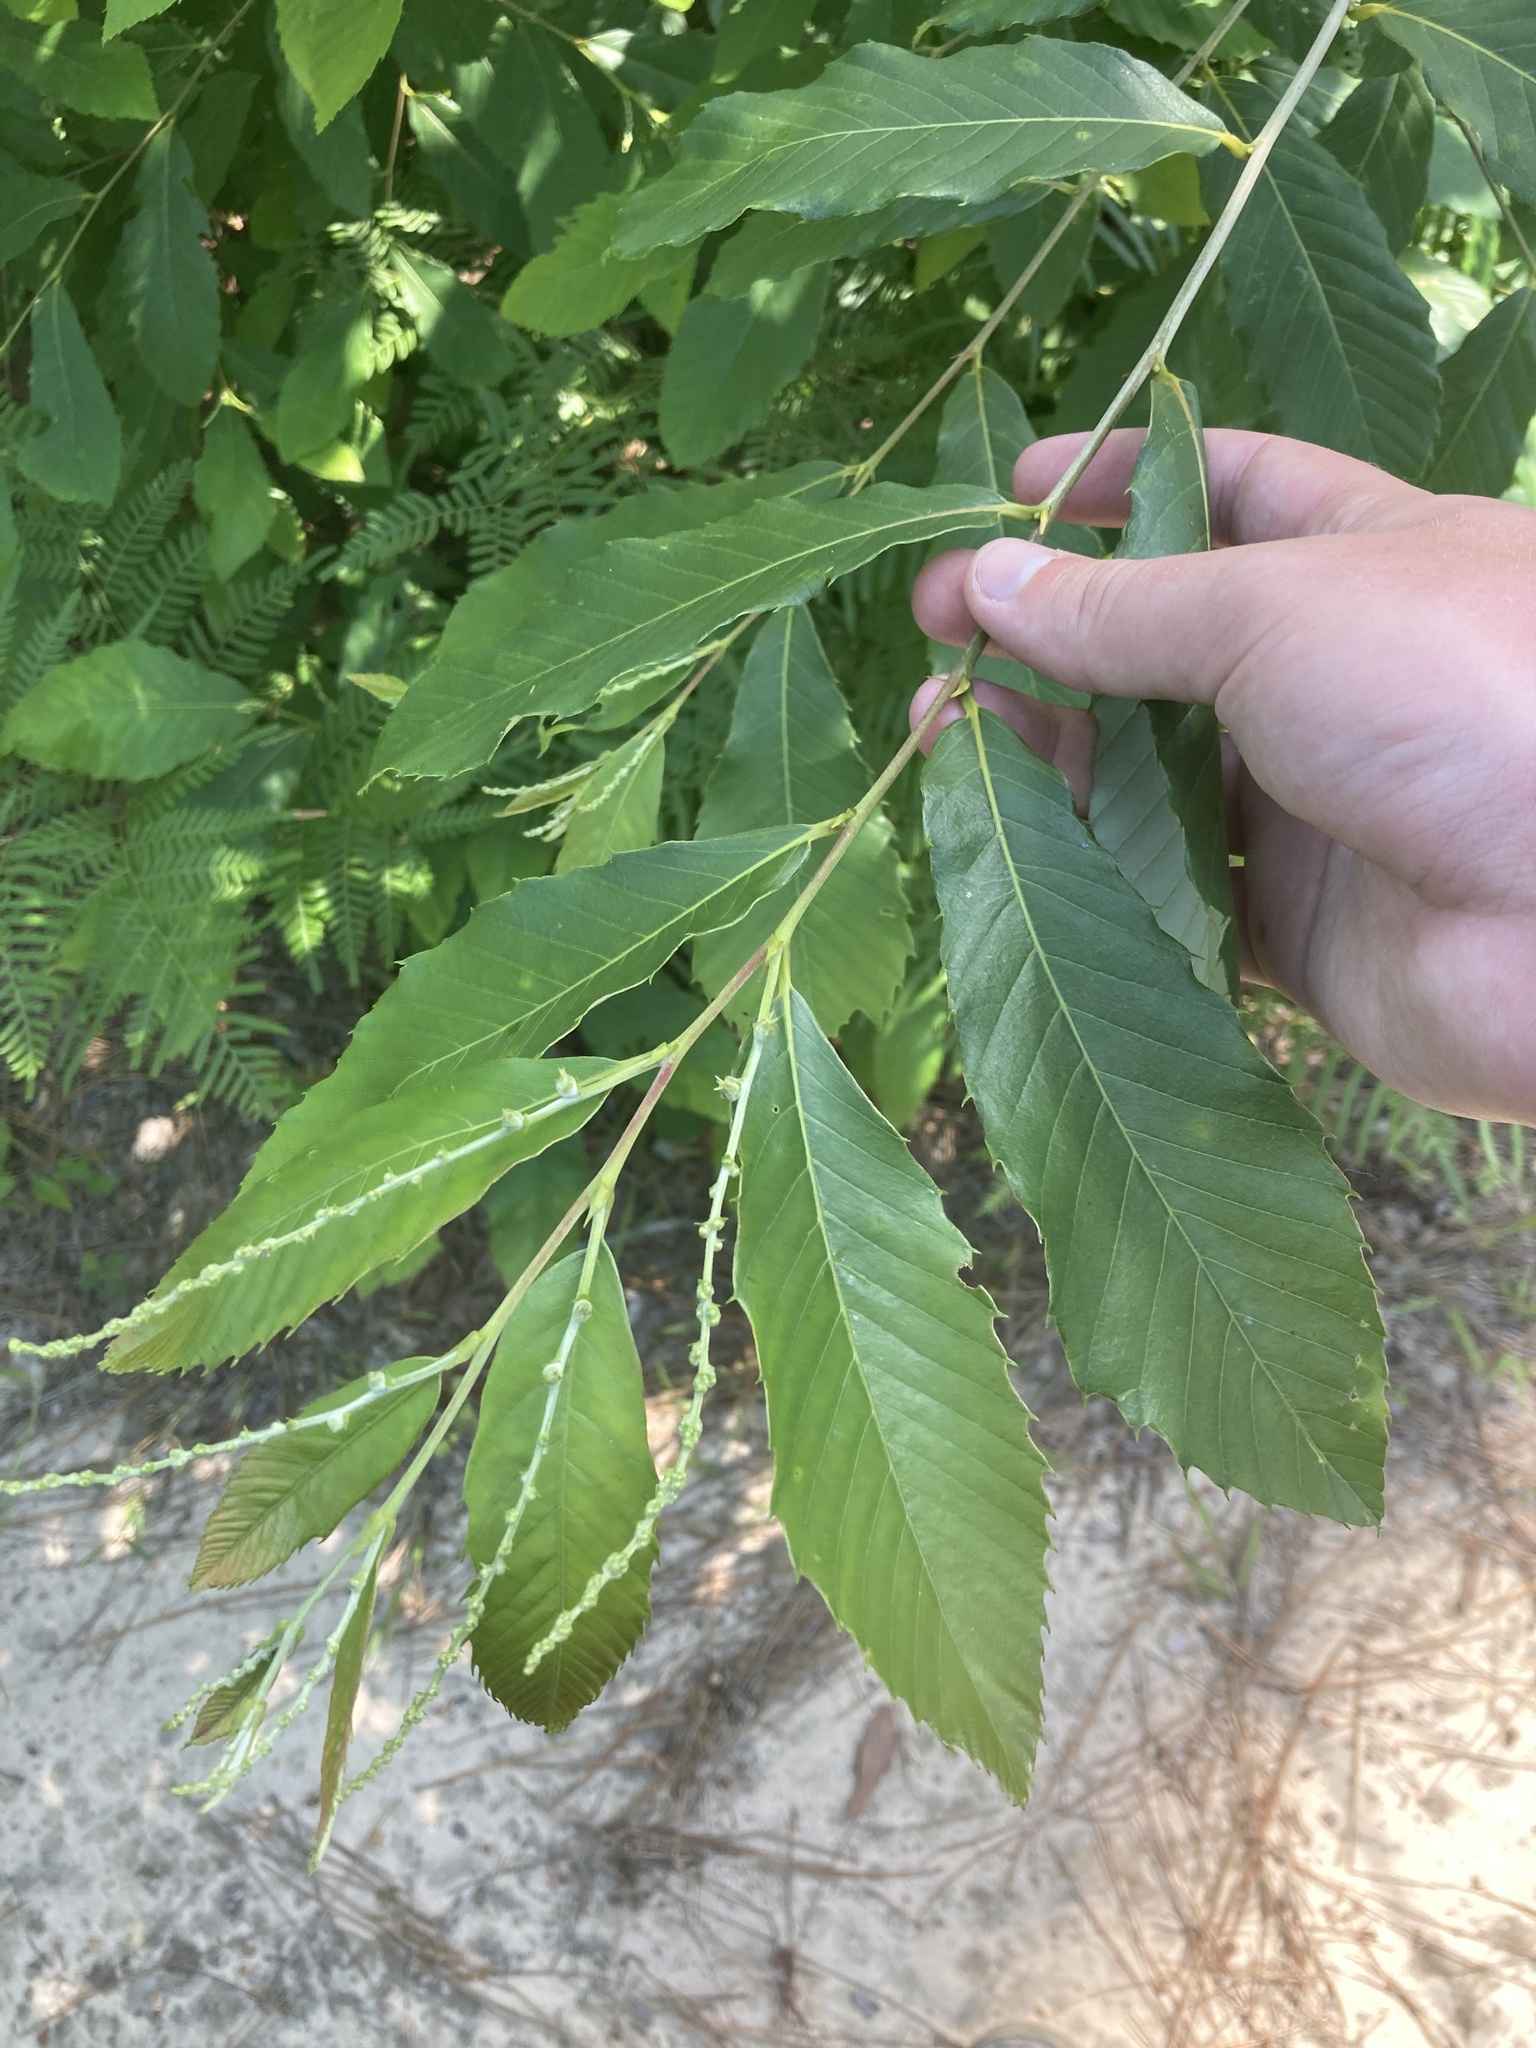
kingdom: Plantae
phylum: Tracheophyta
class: Magnoliopsida
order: Fagales
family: Fagaceae
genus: Castanea
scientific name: Castanea pumila
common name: Chinkapin
